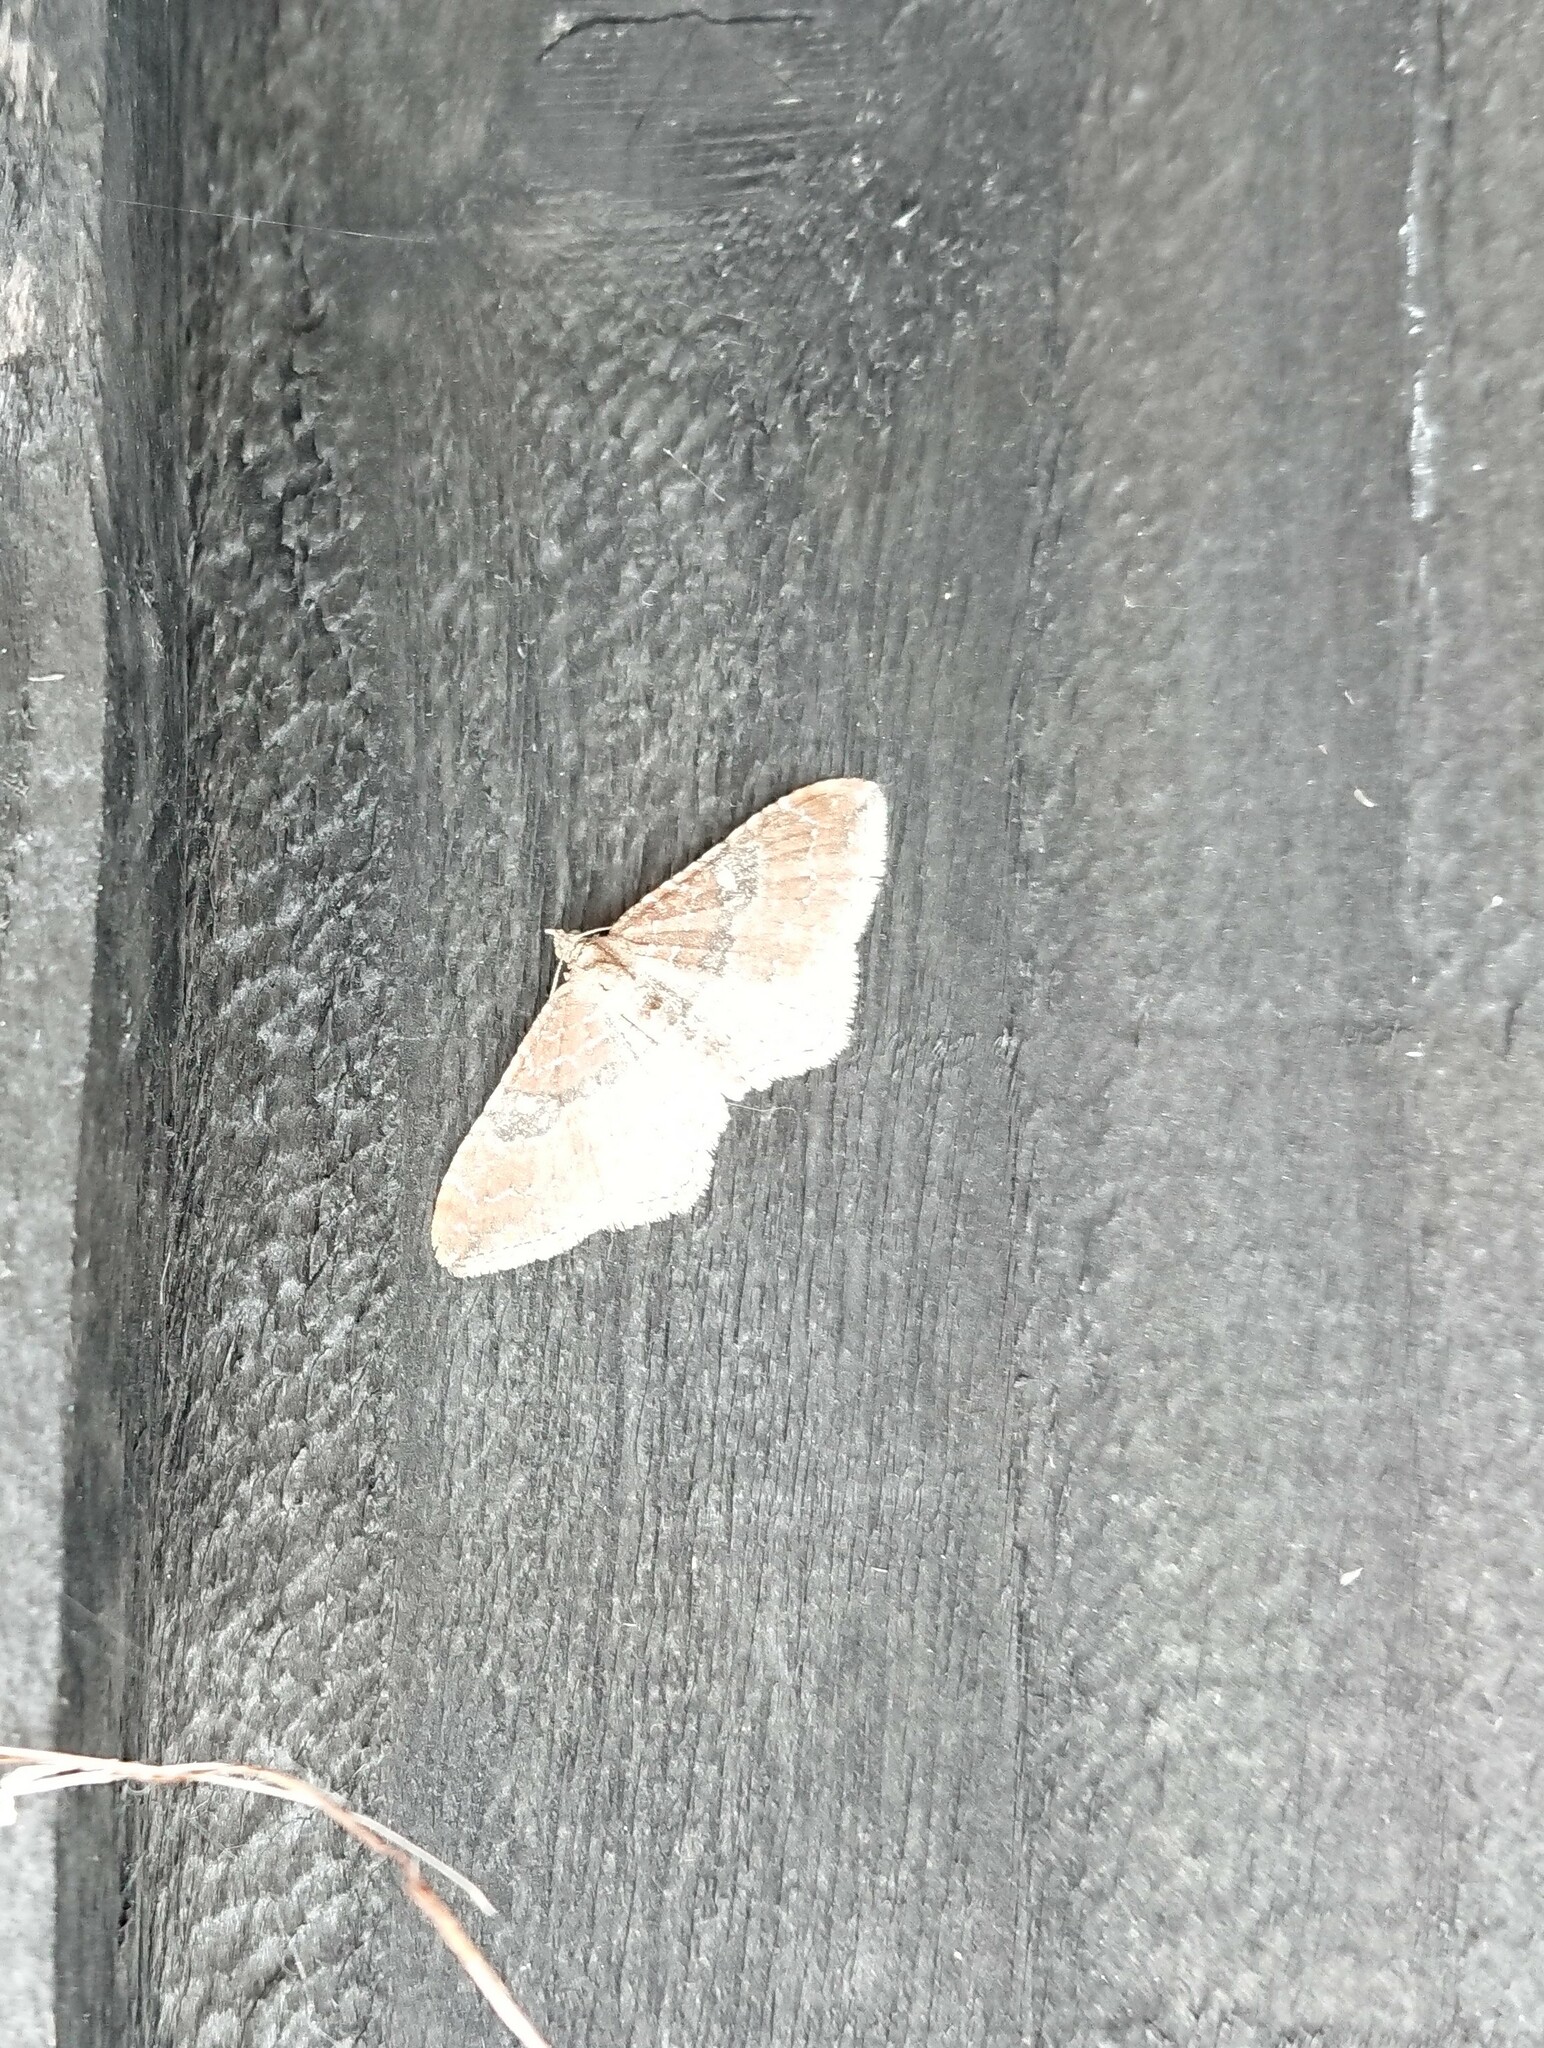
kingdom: Animalia
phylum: Arthropoda
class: Insecta
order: Lepidoptera
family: Geometridae
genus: Orthonama
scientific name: Orthonama obstipata
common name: The gem
